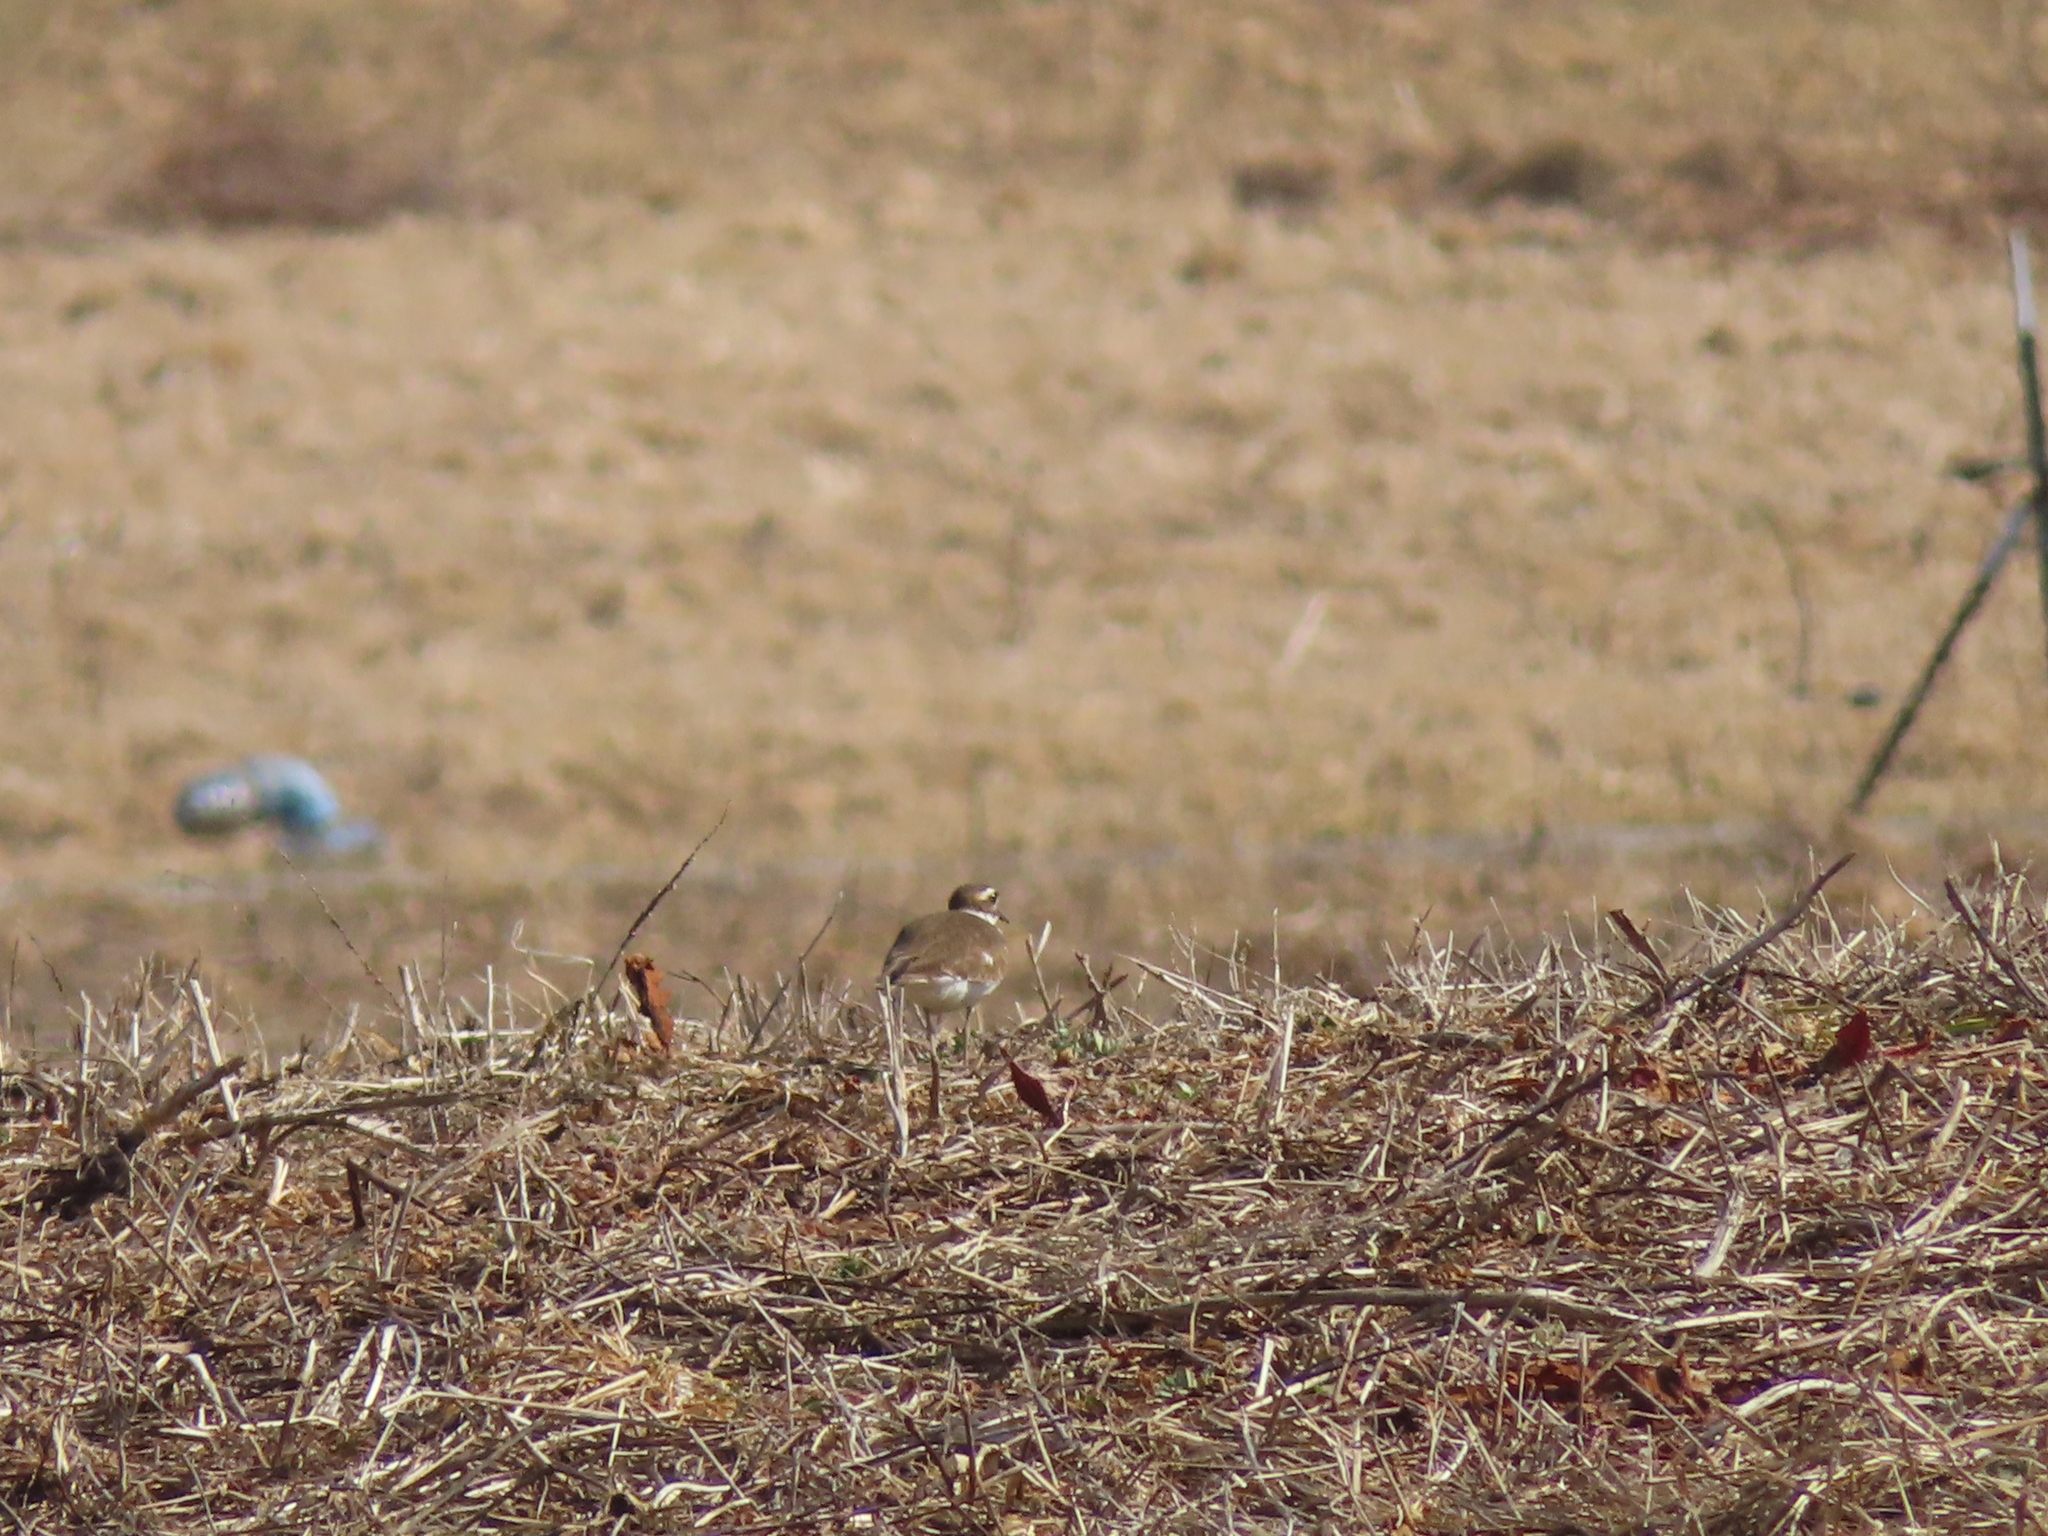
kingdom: Animalia
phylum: Chordata
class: Aves
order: Charadriiformes
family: Charadriidae
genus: Charadrius
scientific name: Charadrius vociferus
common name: Killdeer
